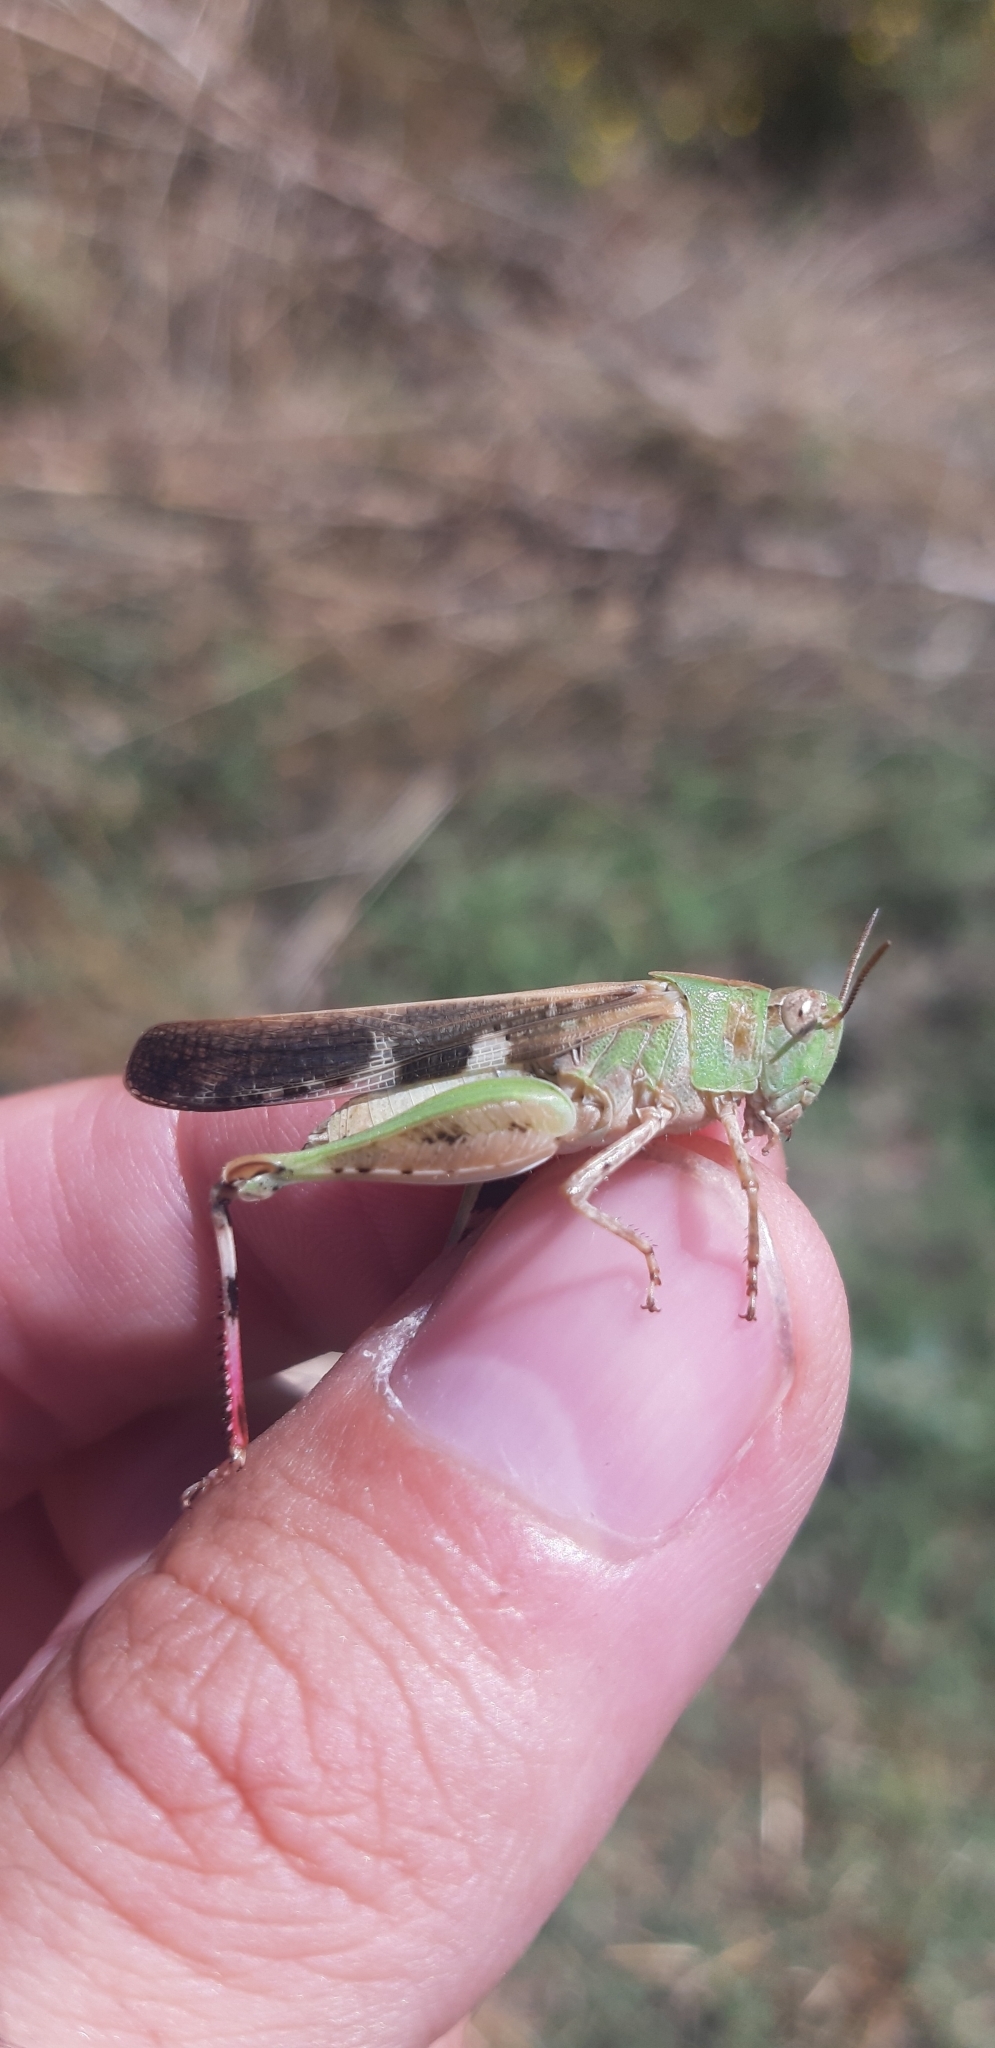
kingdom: Animalia
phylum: Arthropoda
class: Insecta
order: Orthoptera
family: Acrididae
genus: Aiolopus
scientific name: Aiolopus strepens
